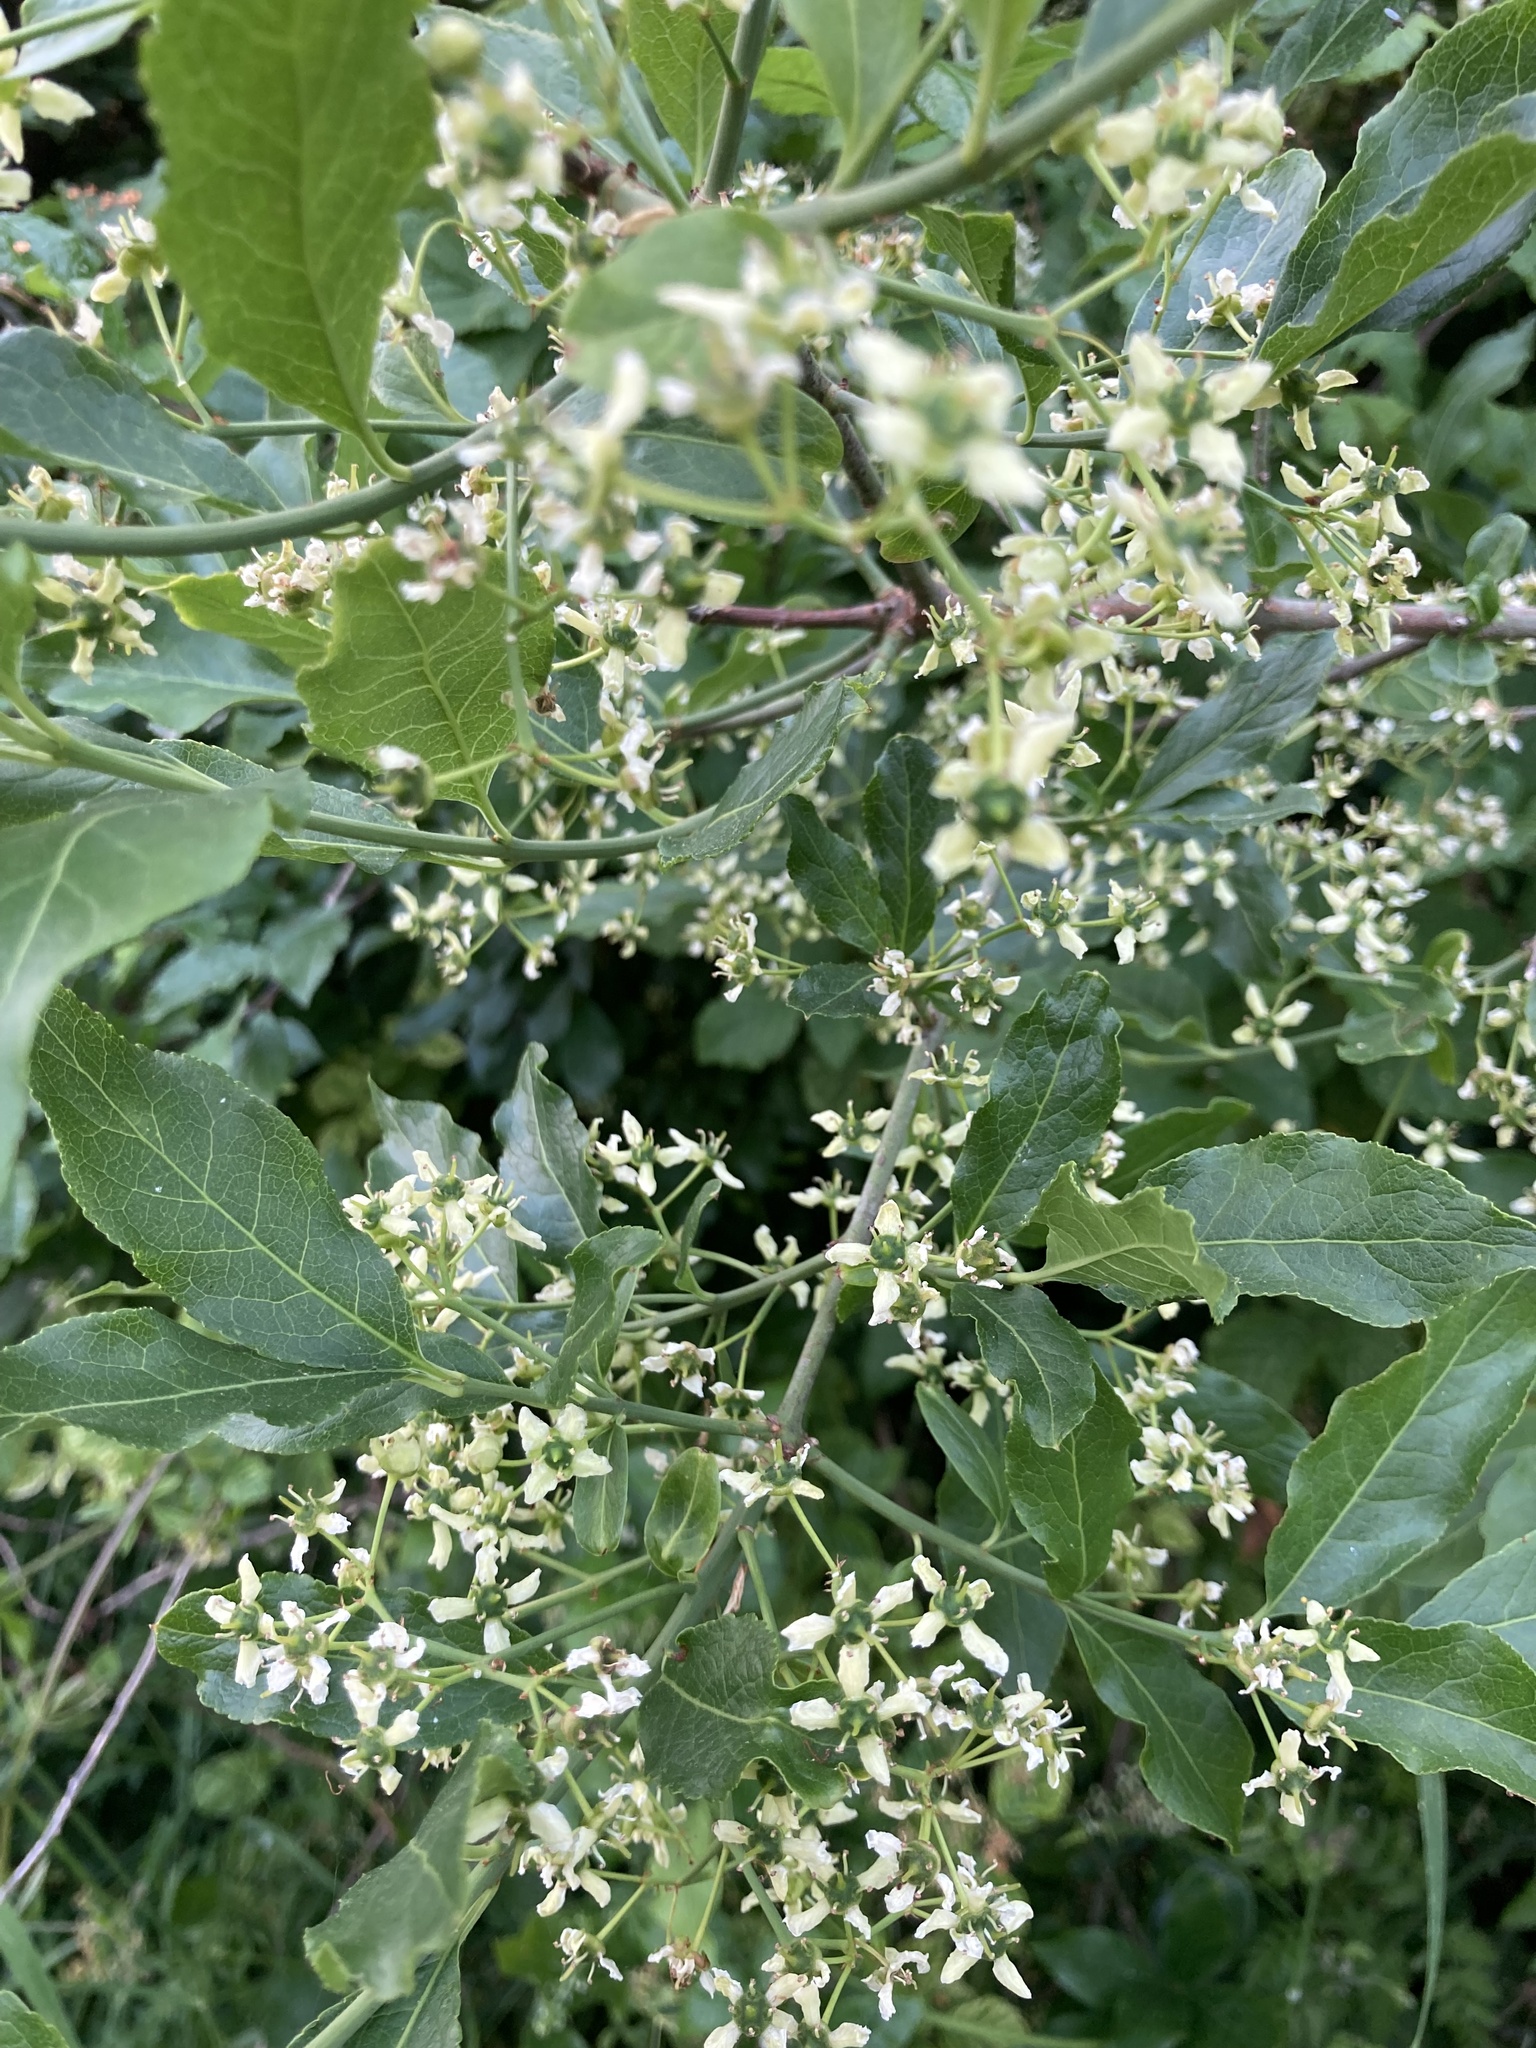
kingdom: Plantae
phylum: Tracheophyta
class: Magnoliopsida
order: Celastrales
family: Celastraceae
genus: Euonymus
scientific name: Euonymus europaeus
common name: Spindle
